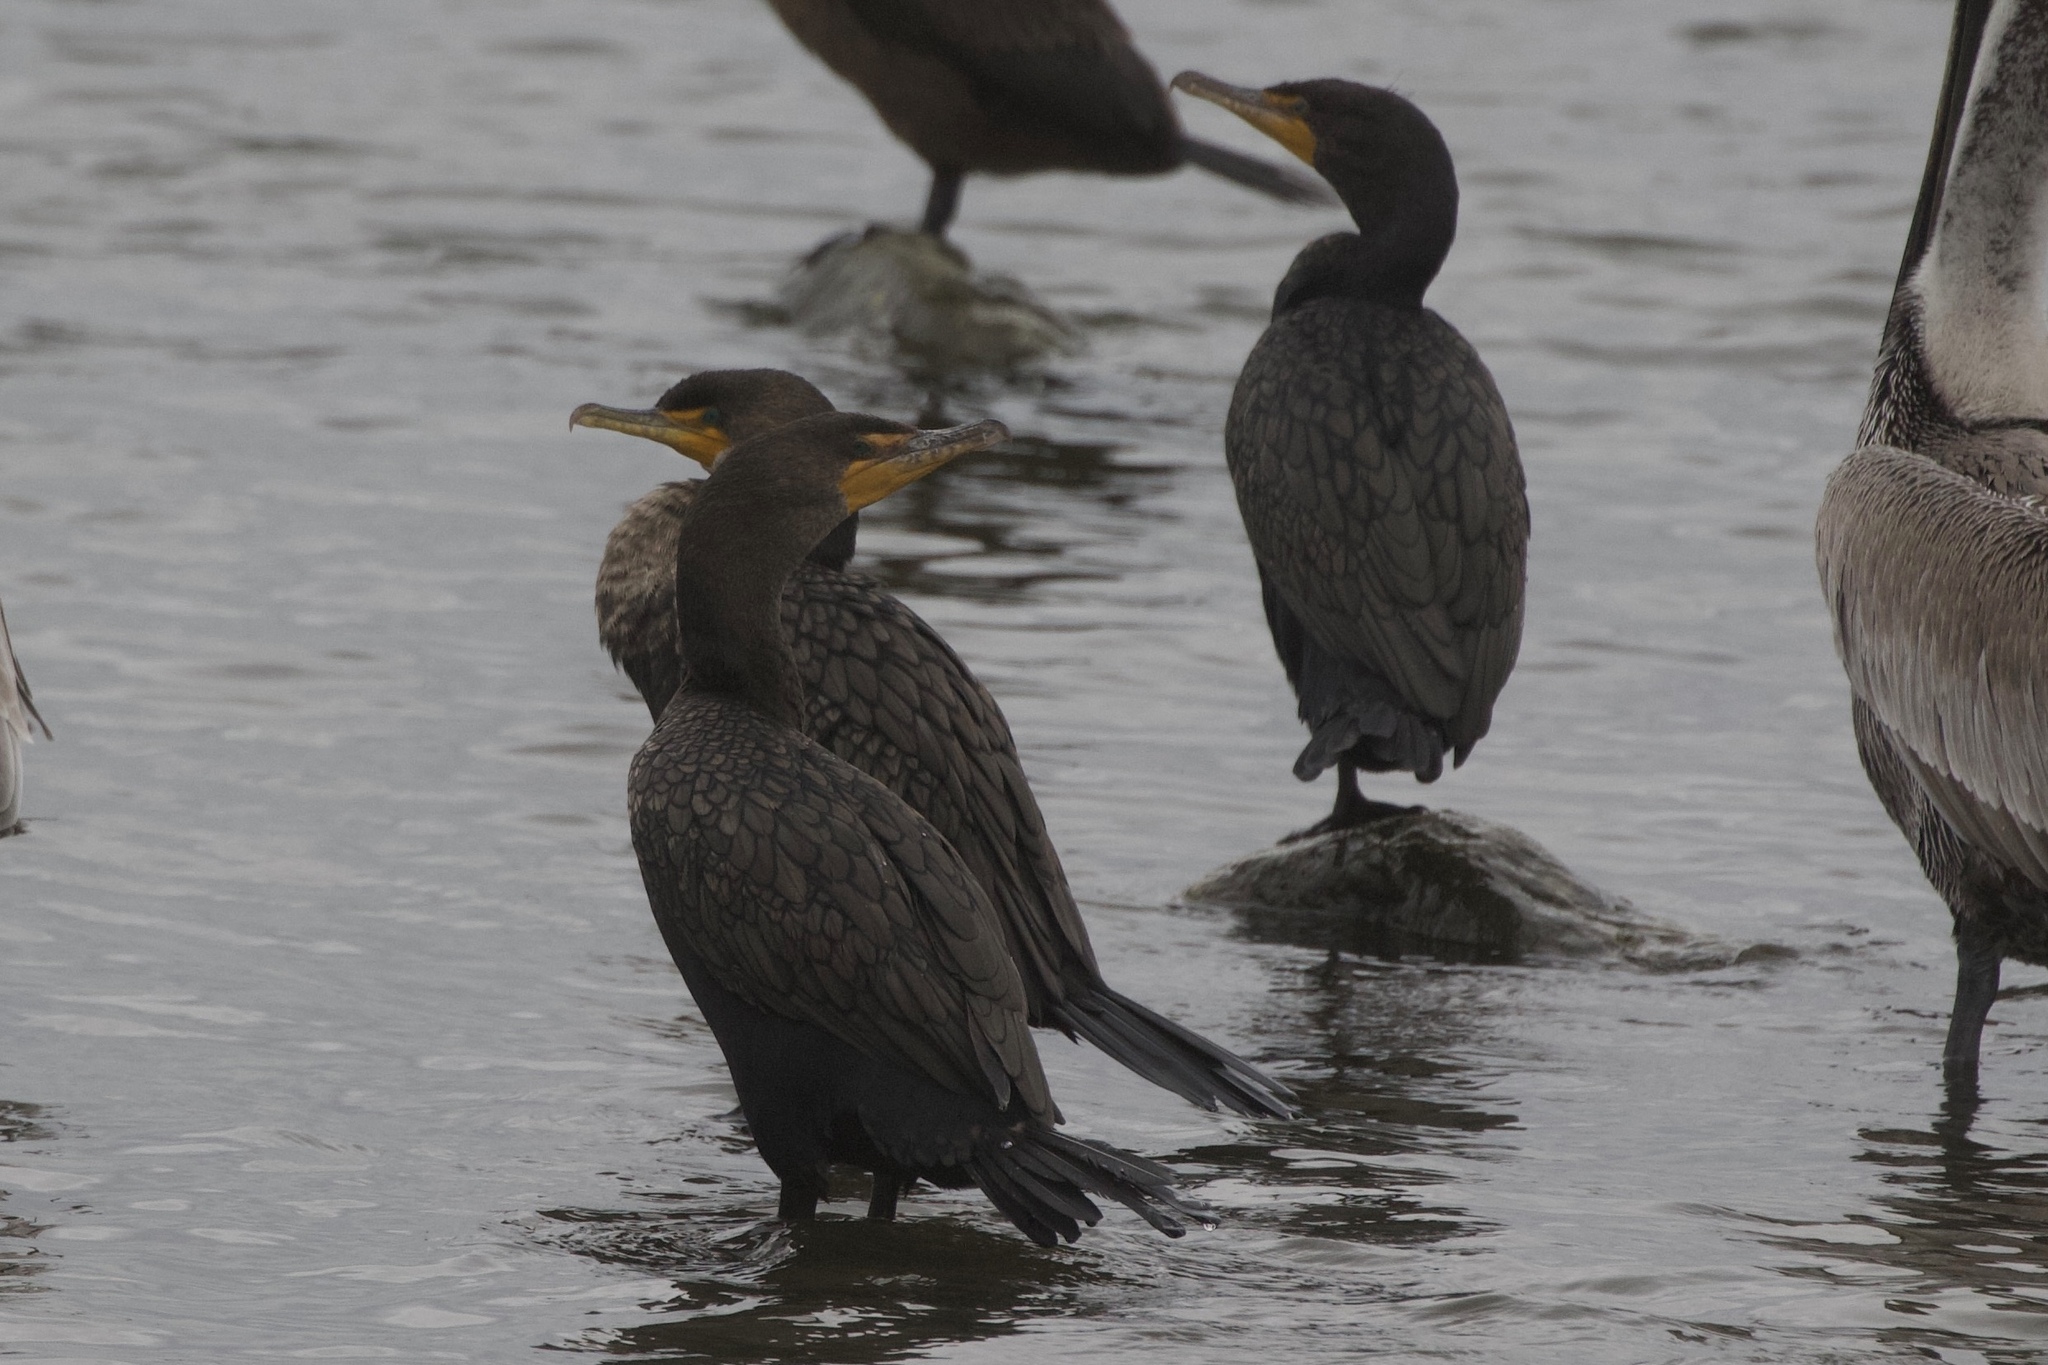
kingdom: Animalia
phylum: Chordata
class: Aves
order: Suliformes
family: Phalacrocoracidae
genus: Phalacrocorax
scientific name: Phalacrocorax auritus
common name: Double-crested cormorant
